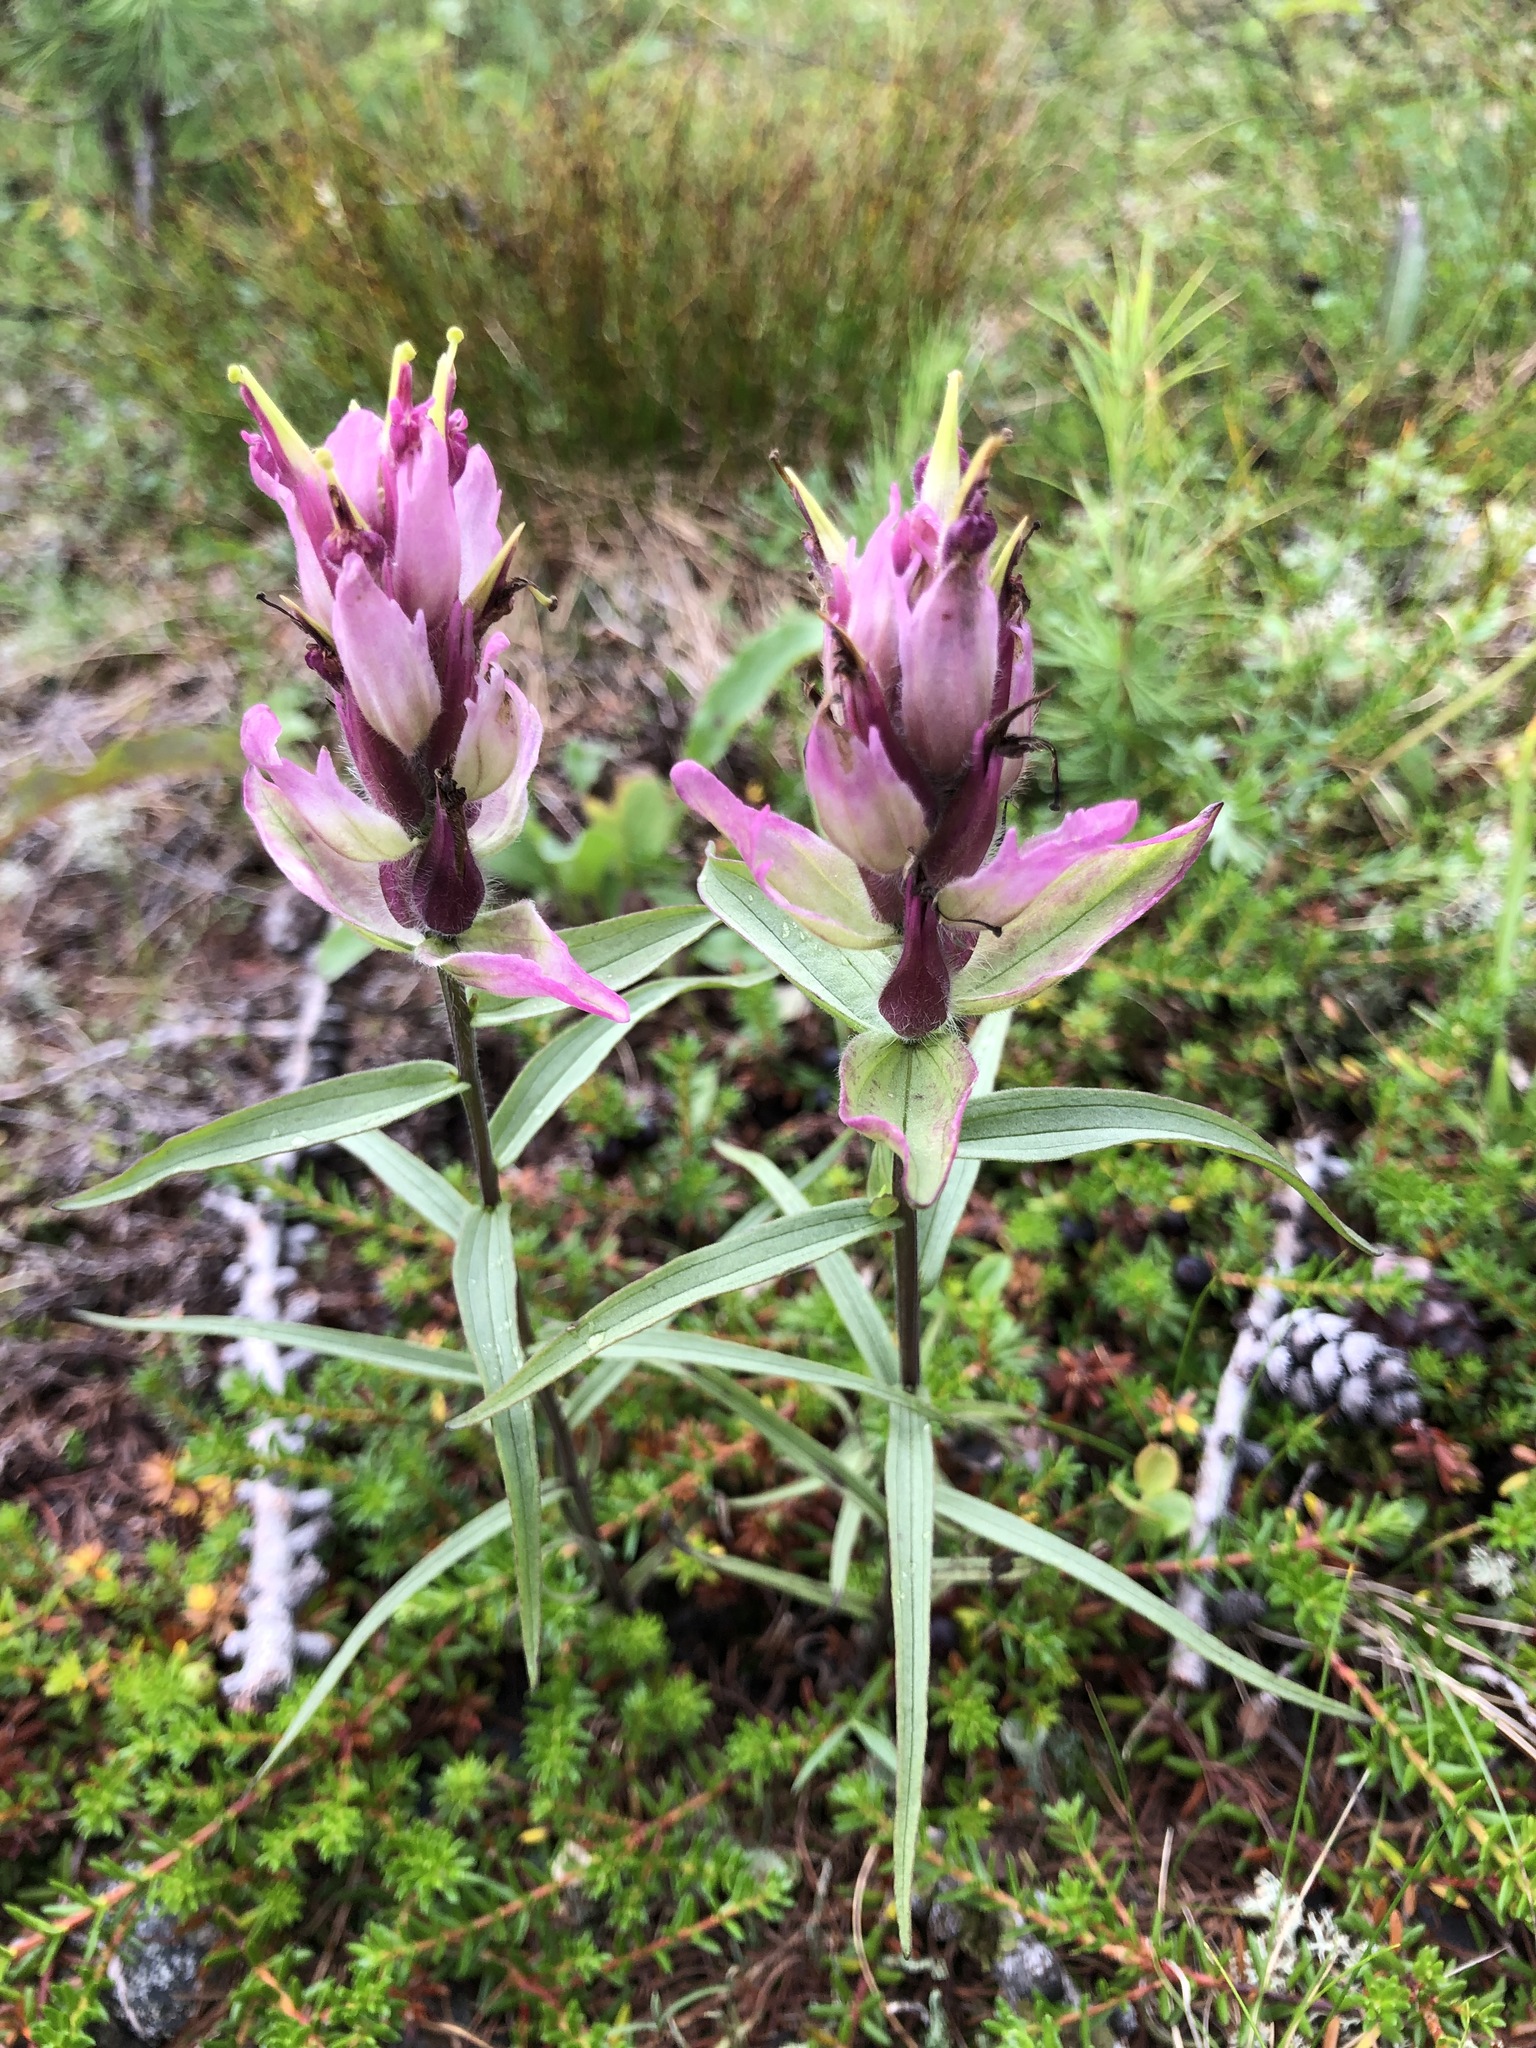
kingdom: Plantae
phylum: Tracheophyta
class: Magnoliopsida
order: Lamiales
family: Orobanchaceae
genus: Castilleja
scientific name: Castilleja arctica
